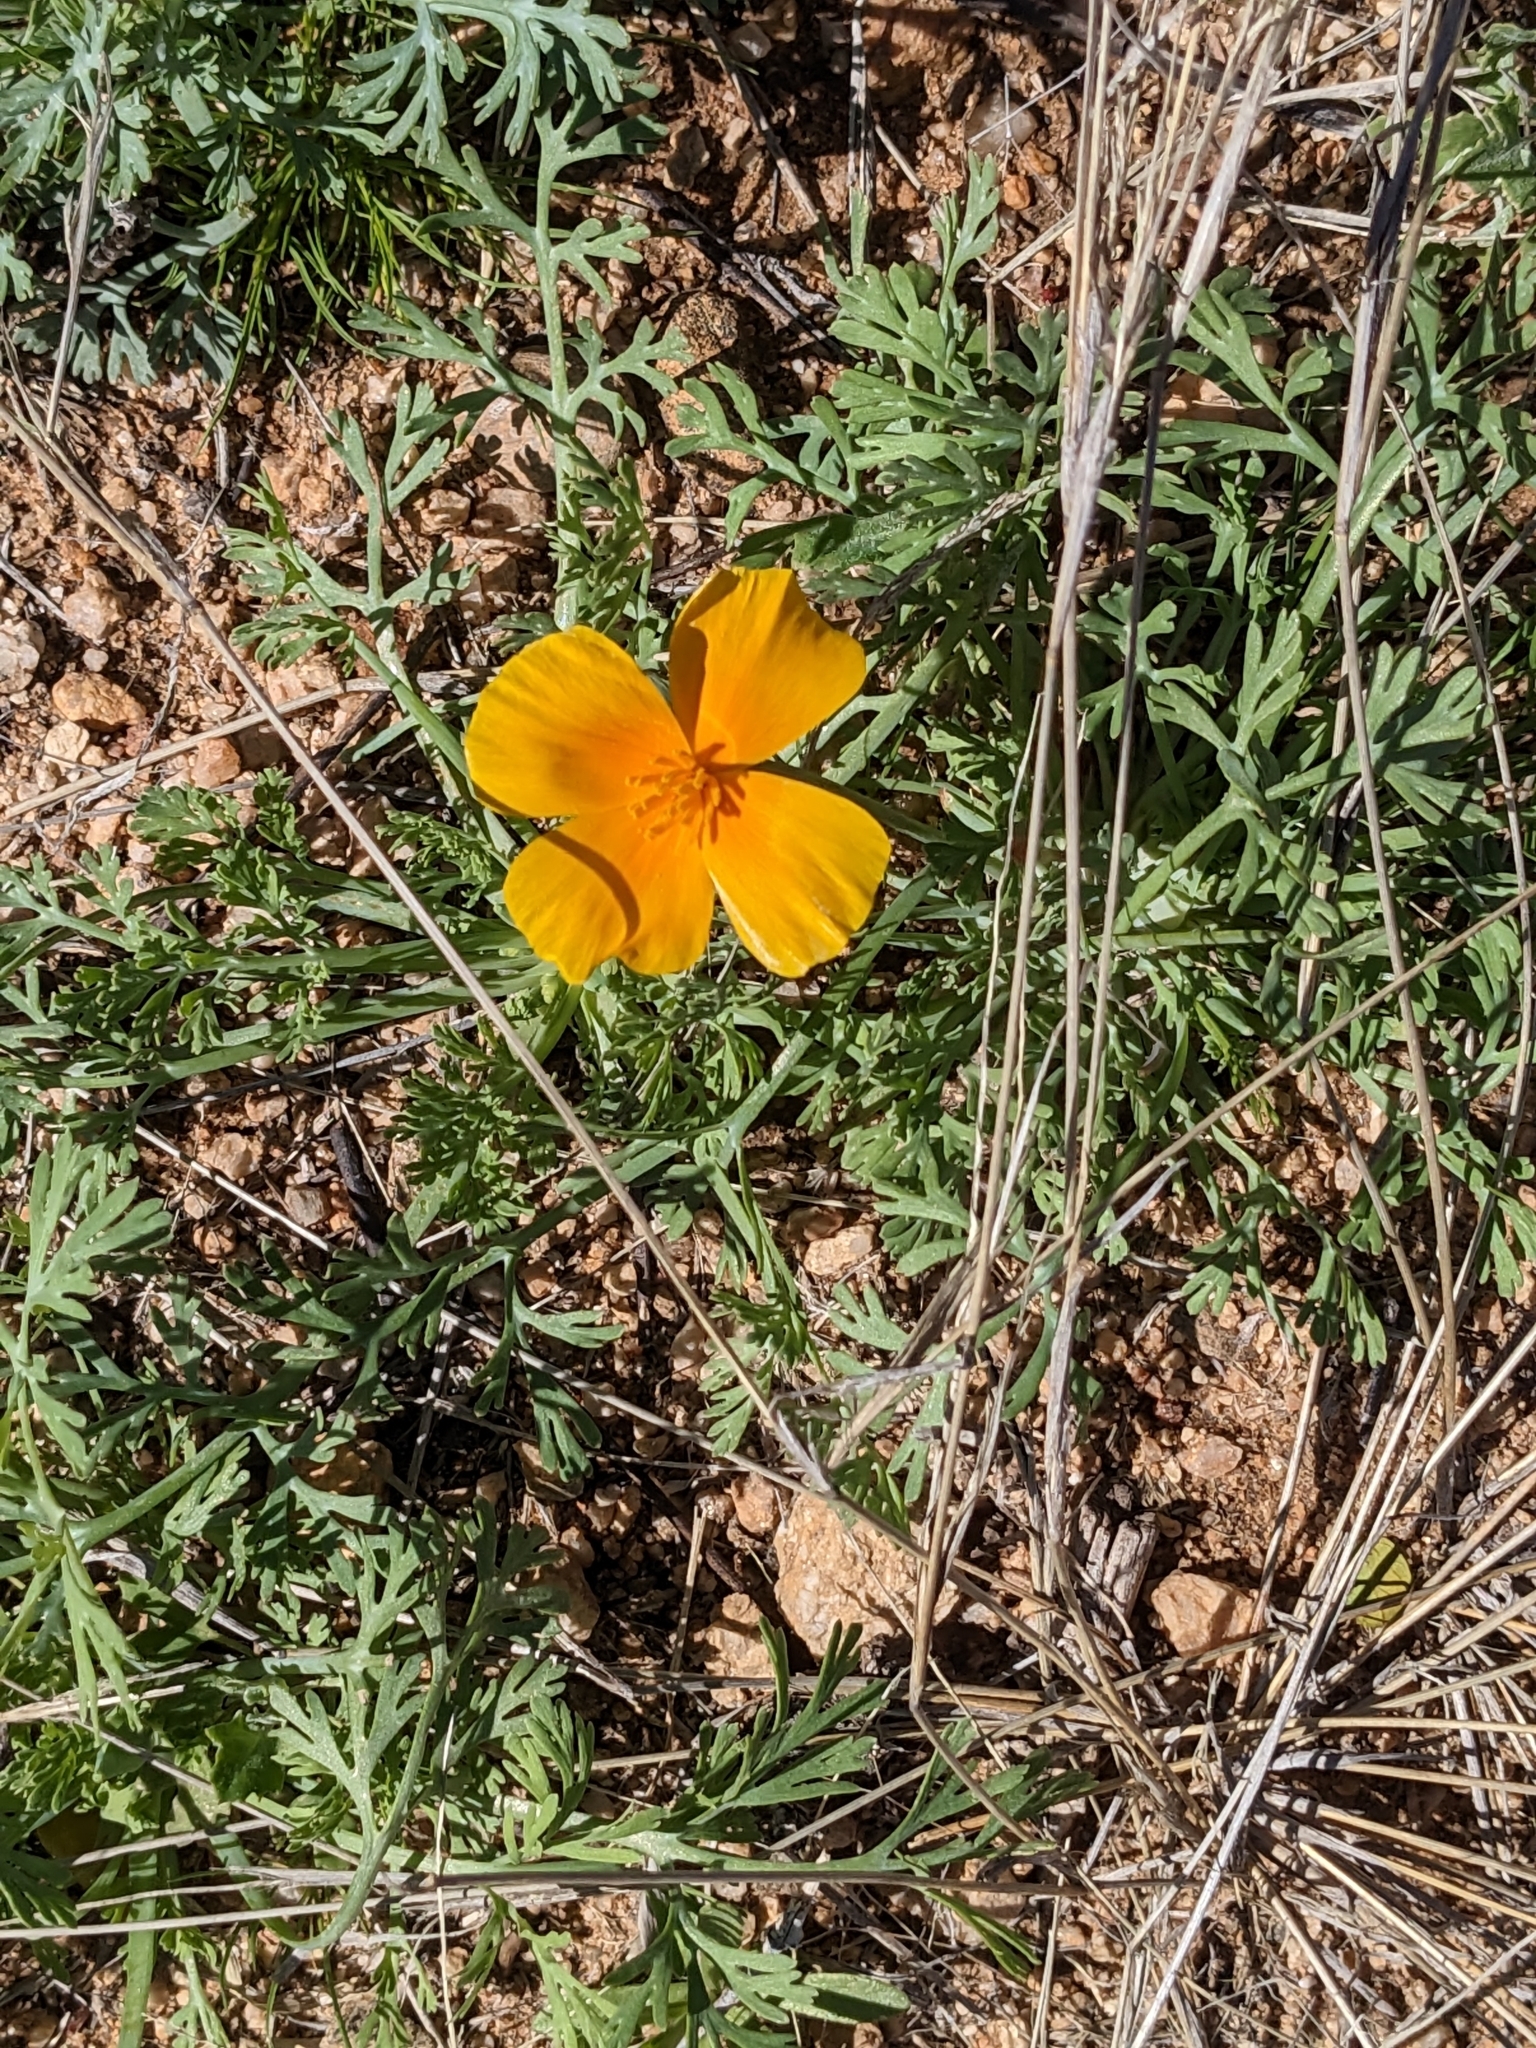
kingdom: Plantae
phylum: Tracheophyta
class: Magnoliopsida
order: Ranunculales
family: Papaveraceae
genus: Eschscholzia
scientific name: Eschscholzia californica
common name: California poppy
